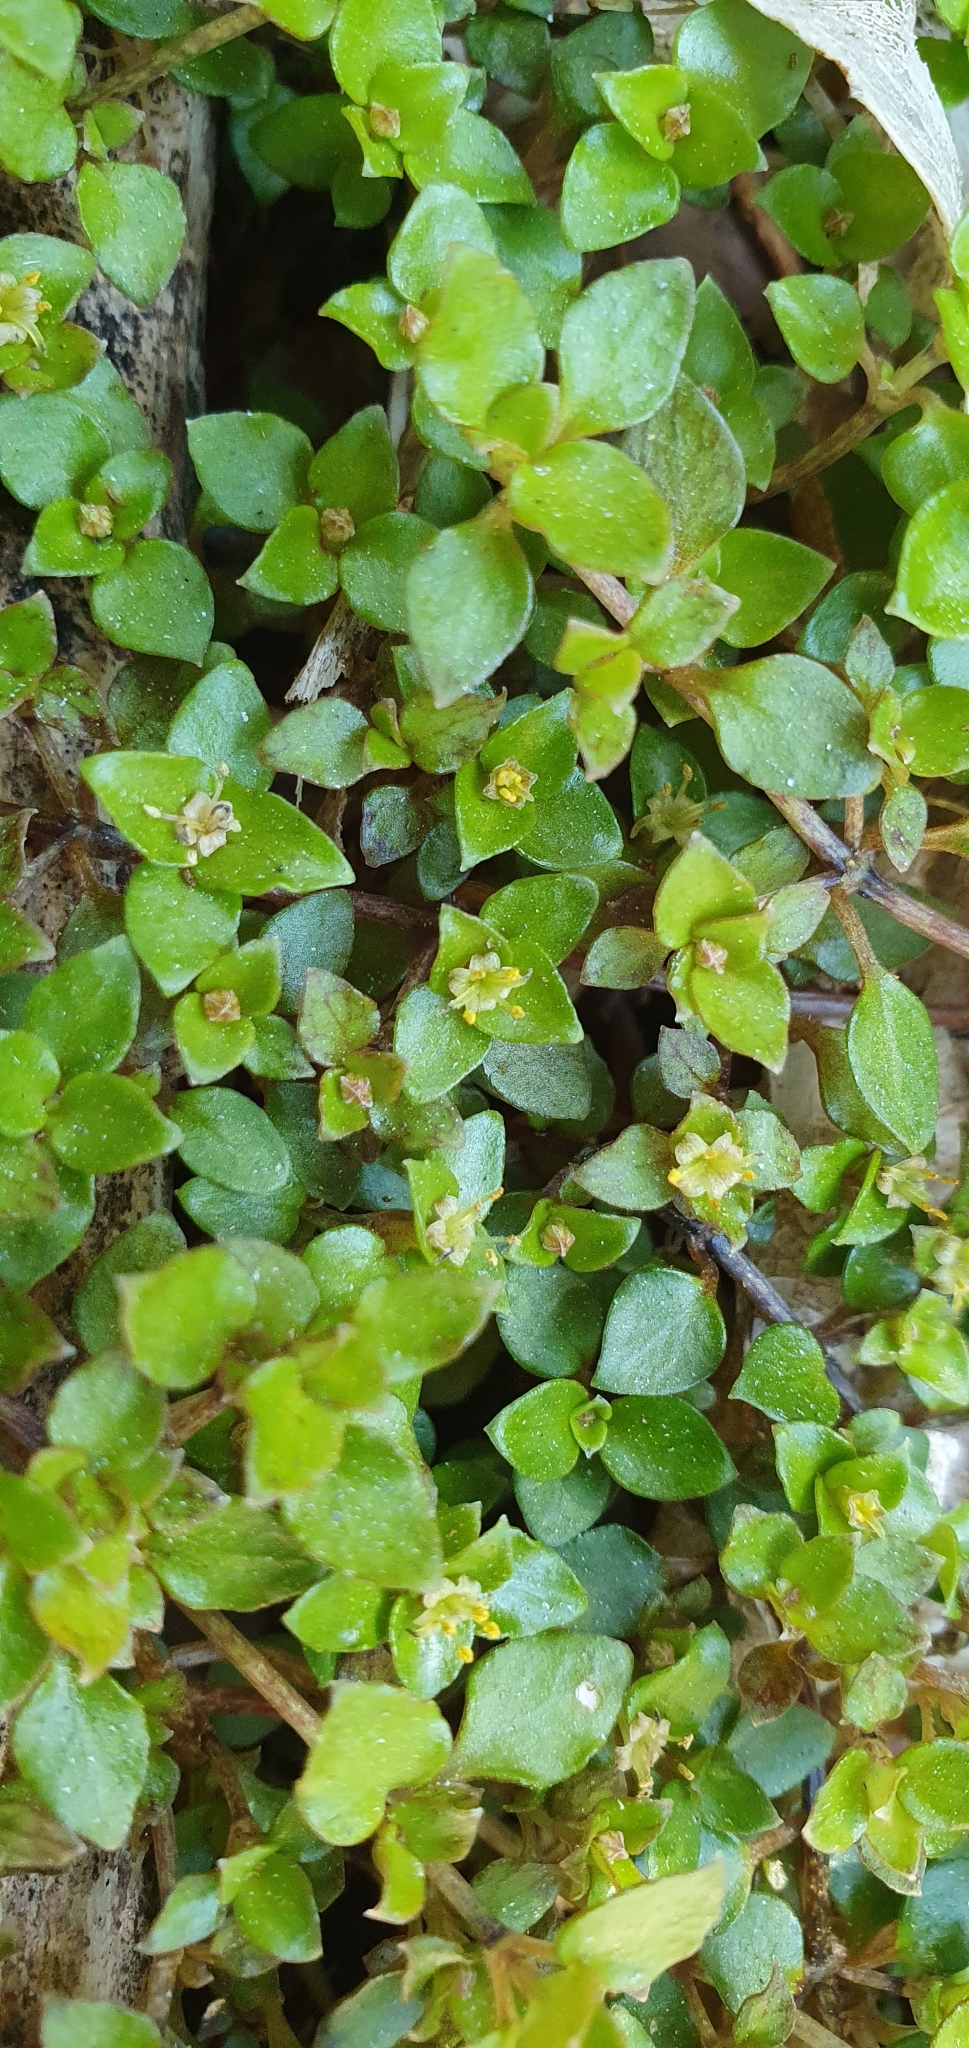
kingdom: Plantae
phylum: Tracheophyta
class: Magnoliopsida
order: Gentianales
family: Rubiaceae
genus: Nertera
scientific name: Nertera granadensis
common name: Beadplant
